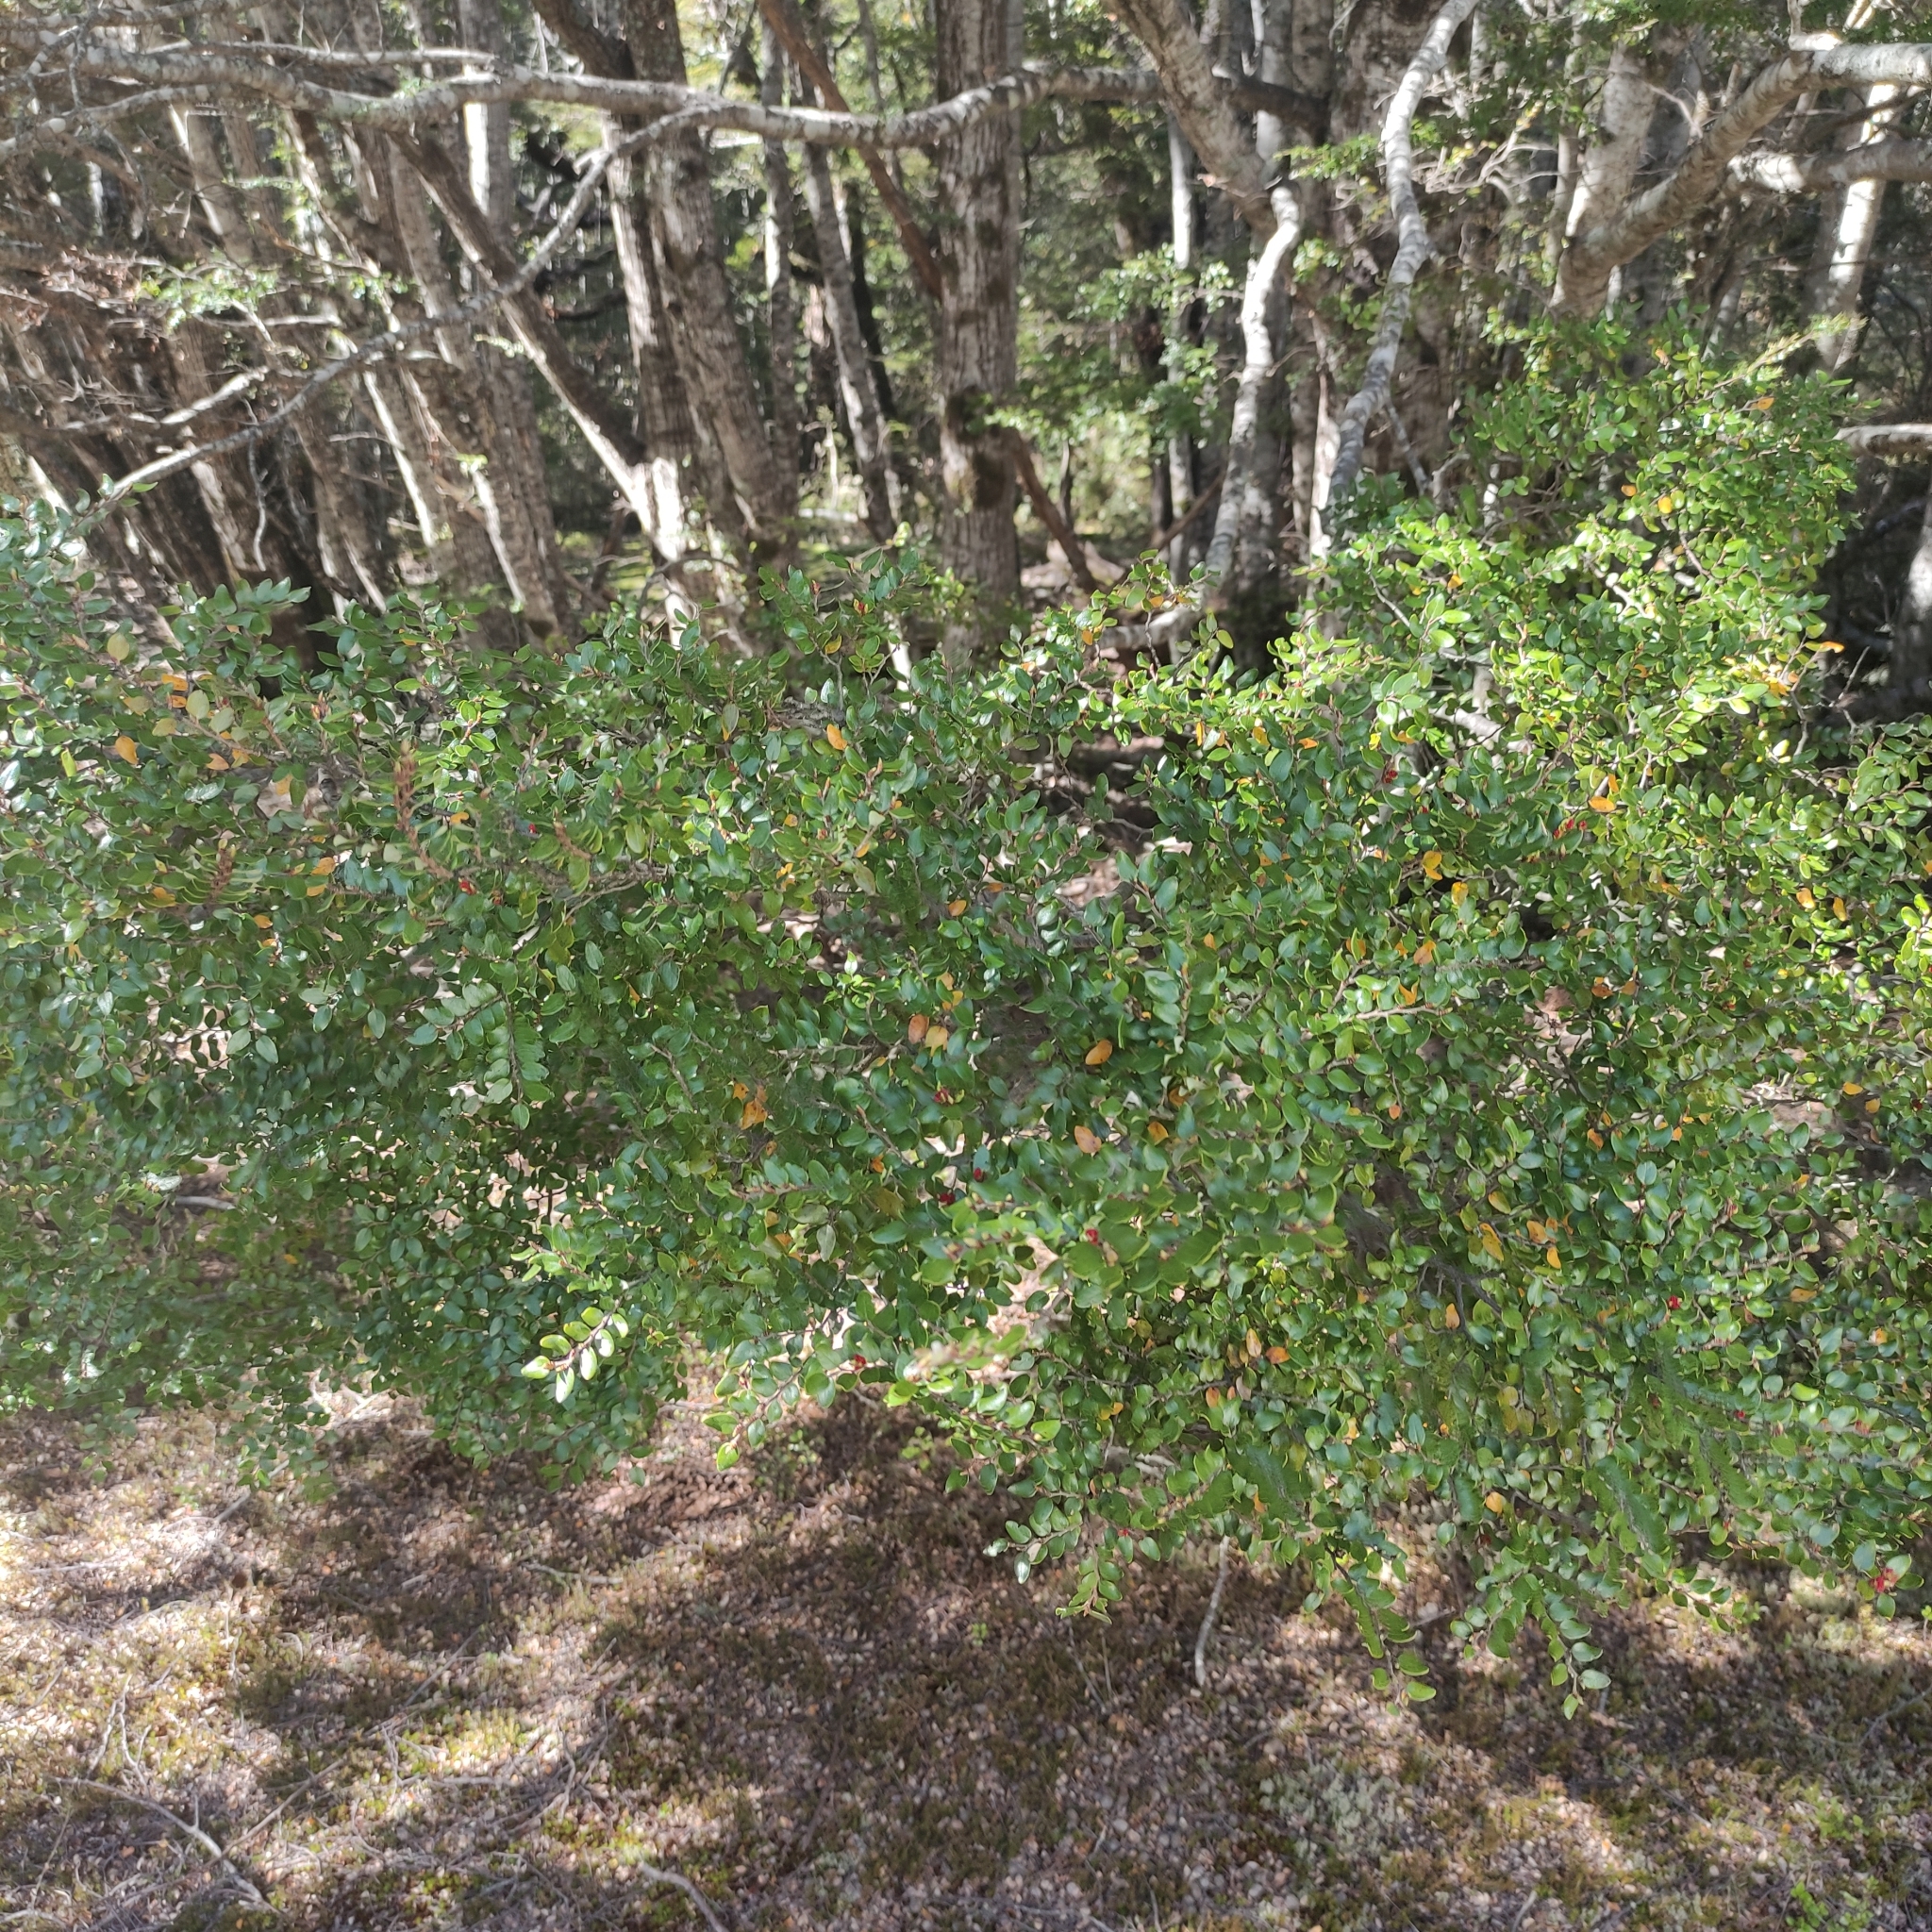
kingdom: Plantae
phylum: Tracheophyta
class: Magnoliopsida
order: Fagales
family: Nothofagaceae
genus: Nothofagus
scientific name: Nothofagus cliffortioides
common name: Mountain beech
